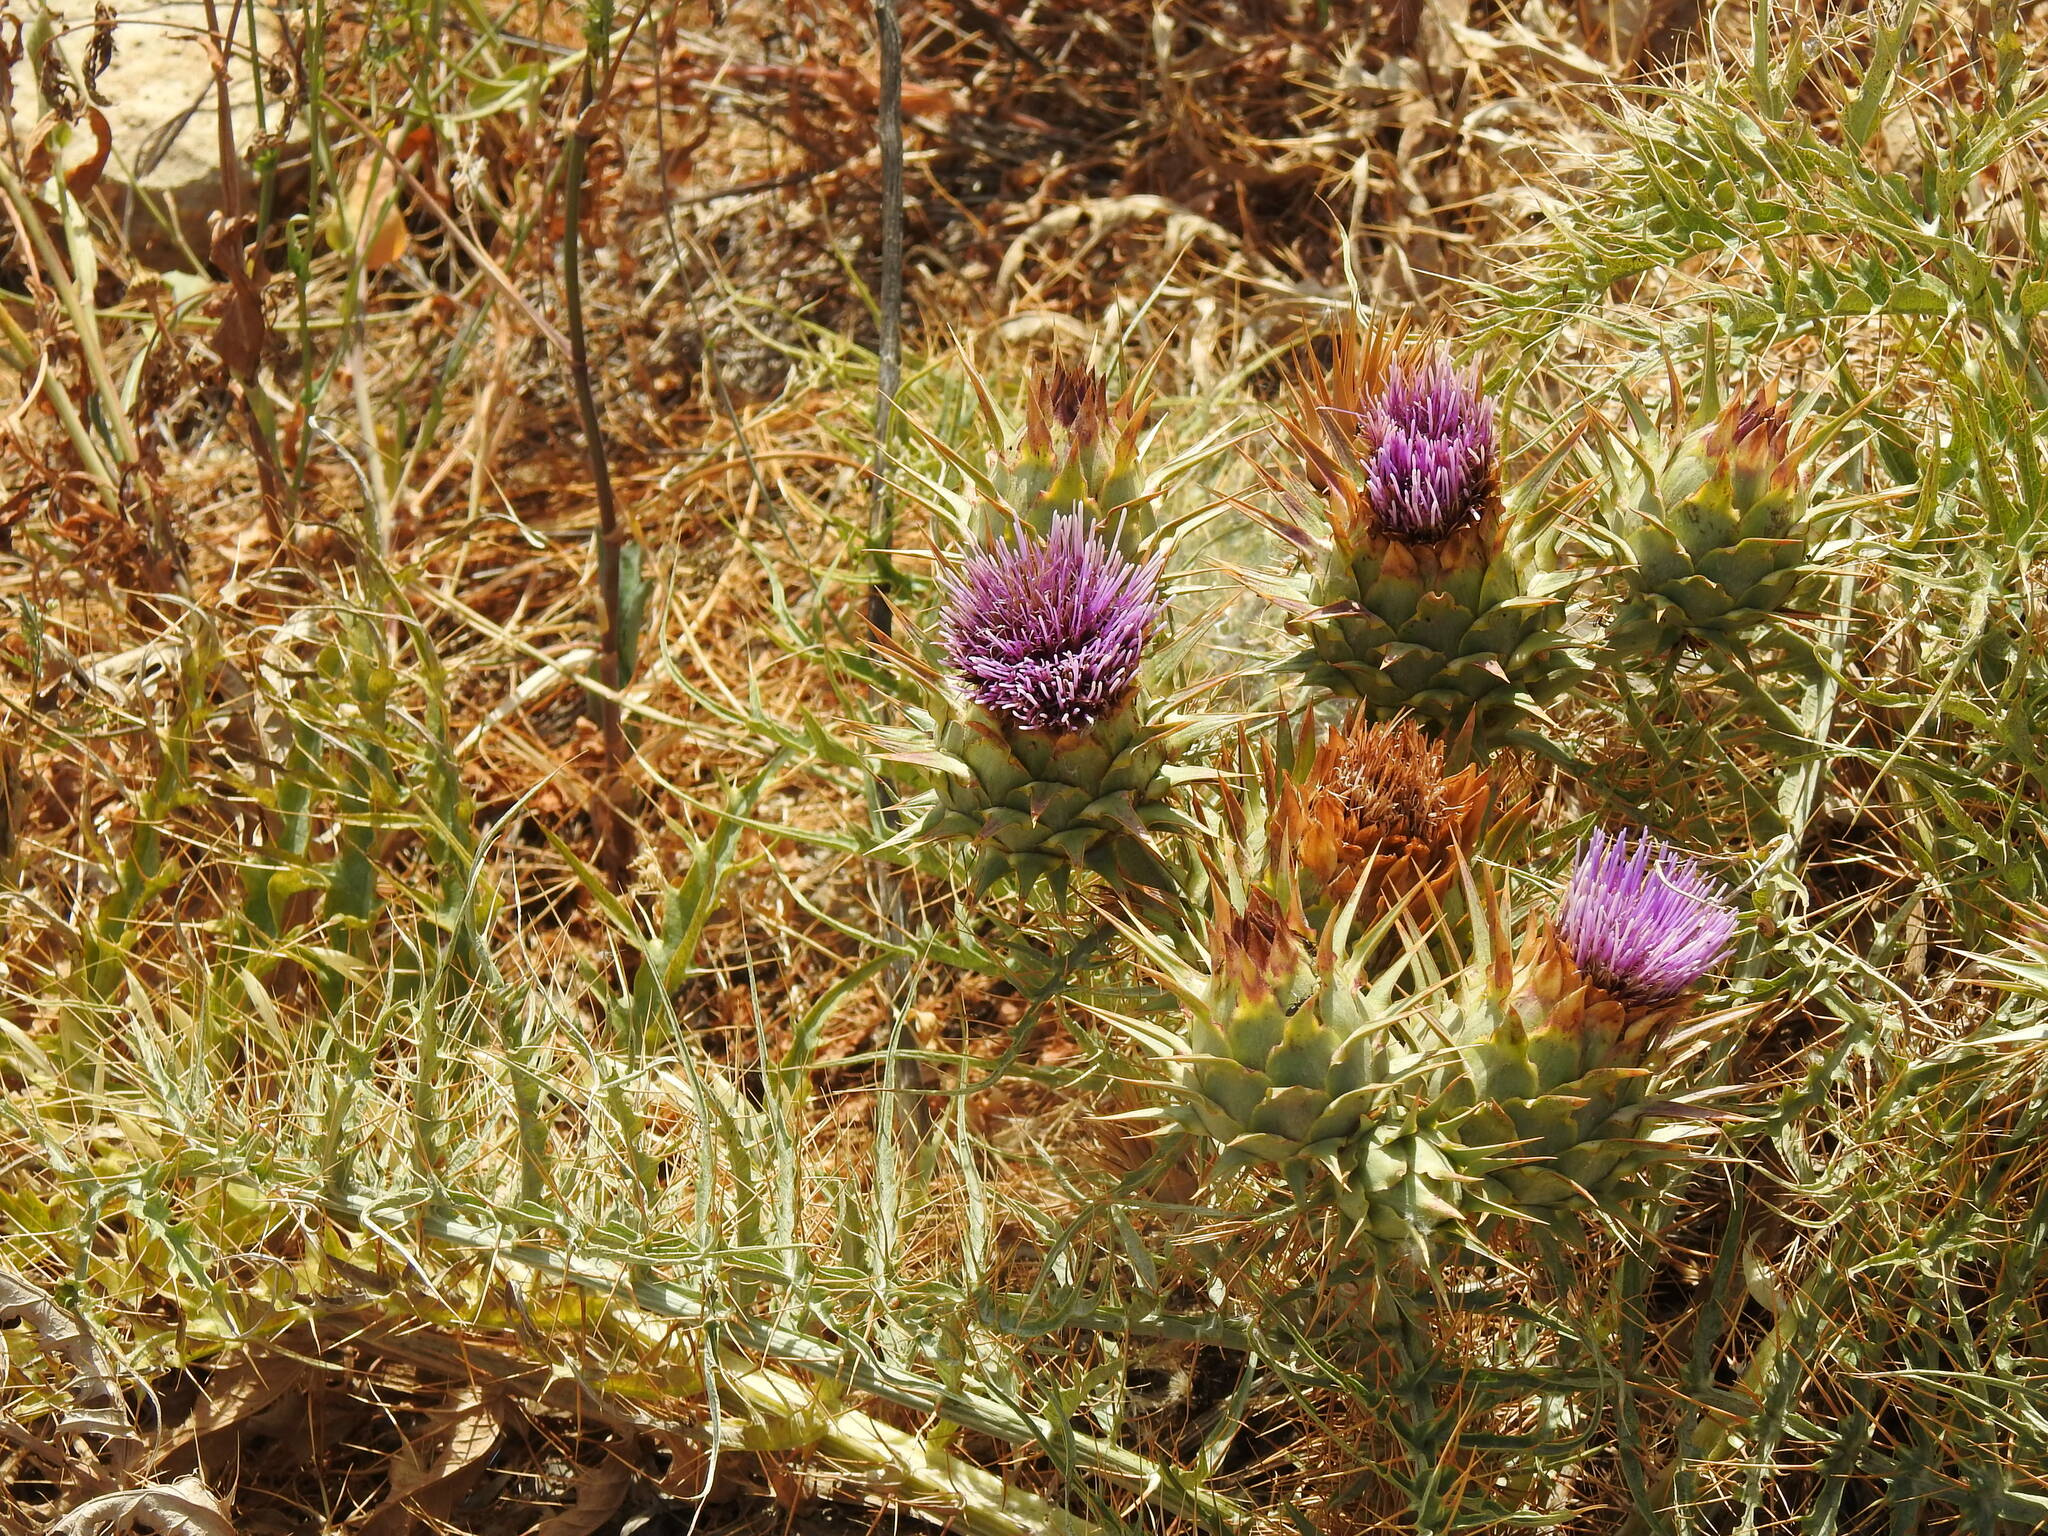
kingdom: Plantae
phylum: Tracheophyta
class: Magnoliopsida
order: Asterales
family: Asteraceae
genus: Cynara
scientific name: Cynara cardunculus
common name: Globe artichoke
